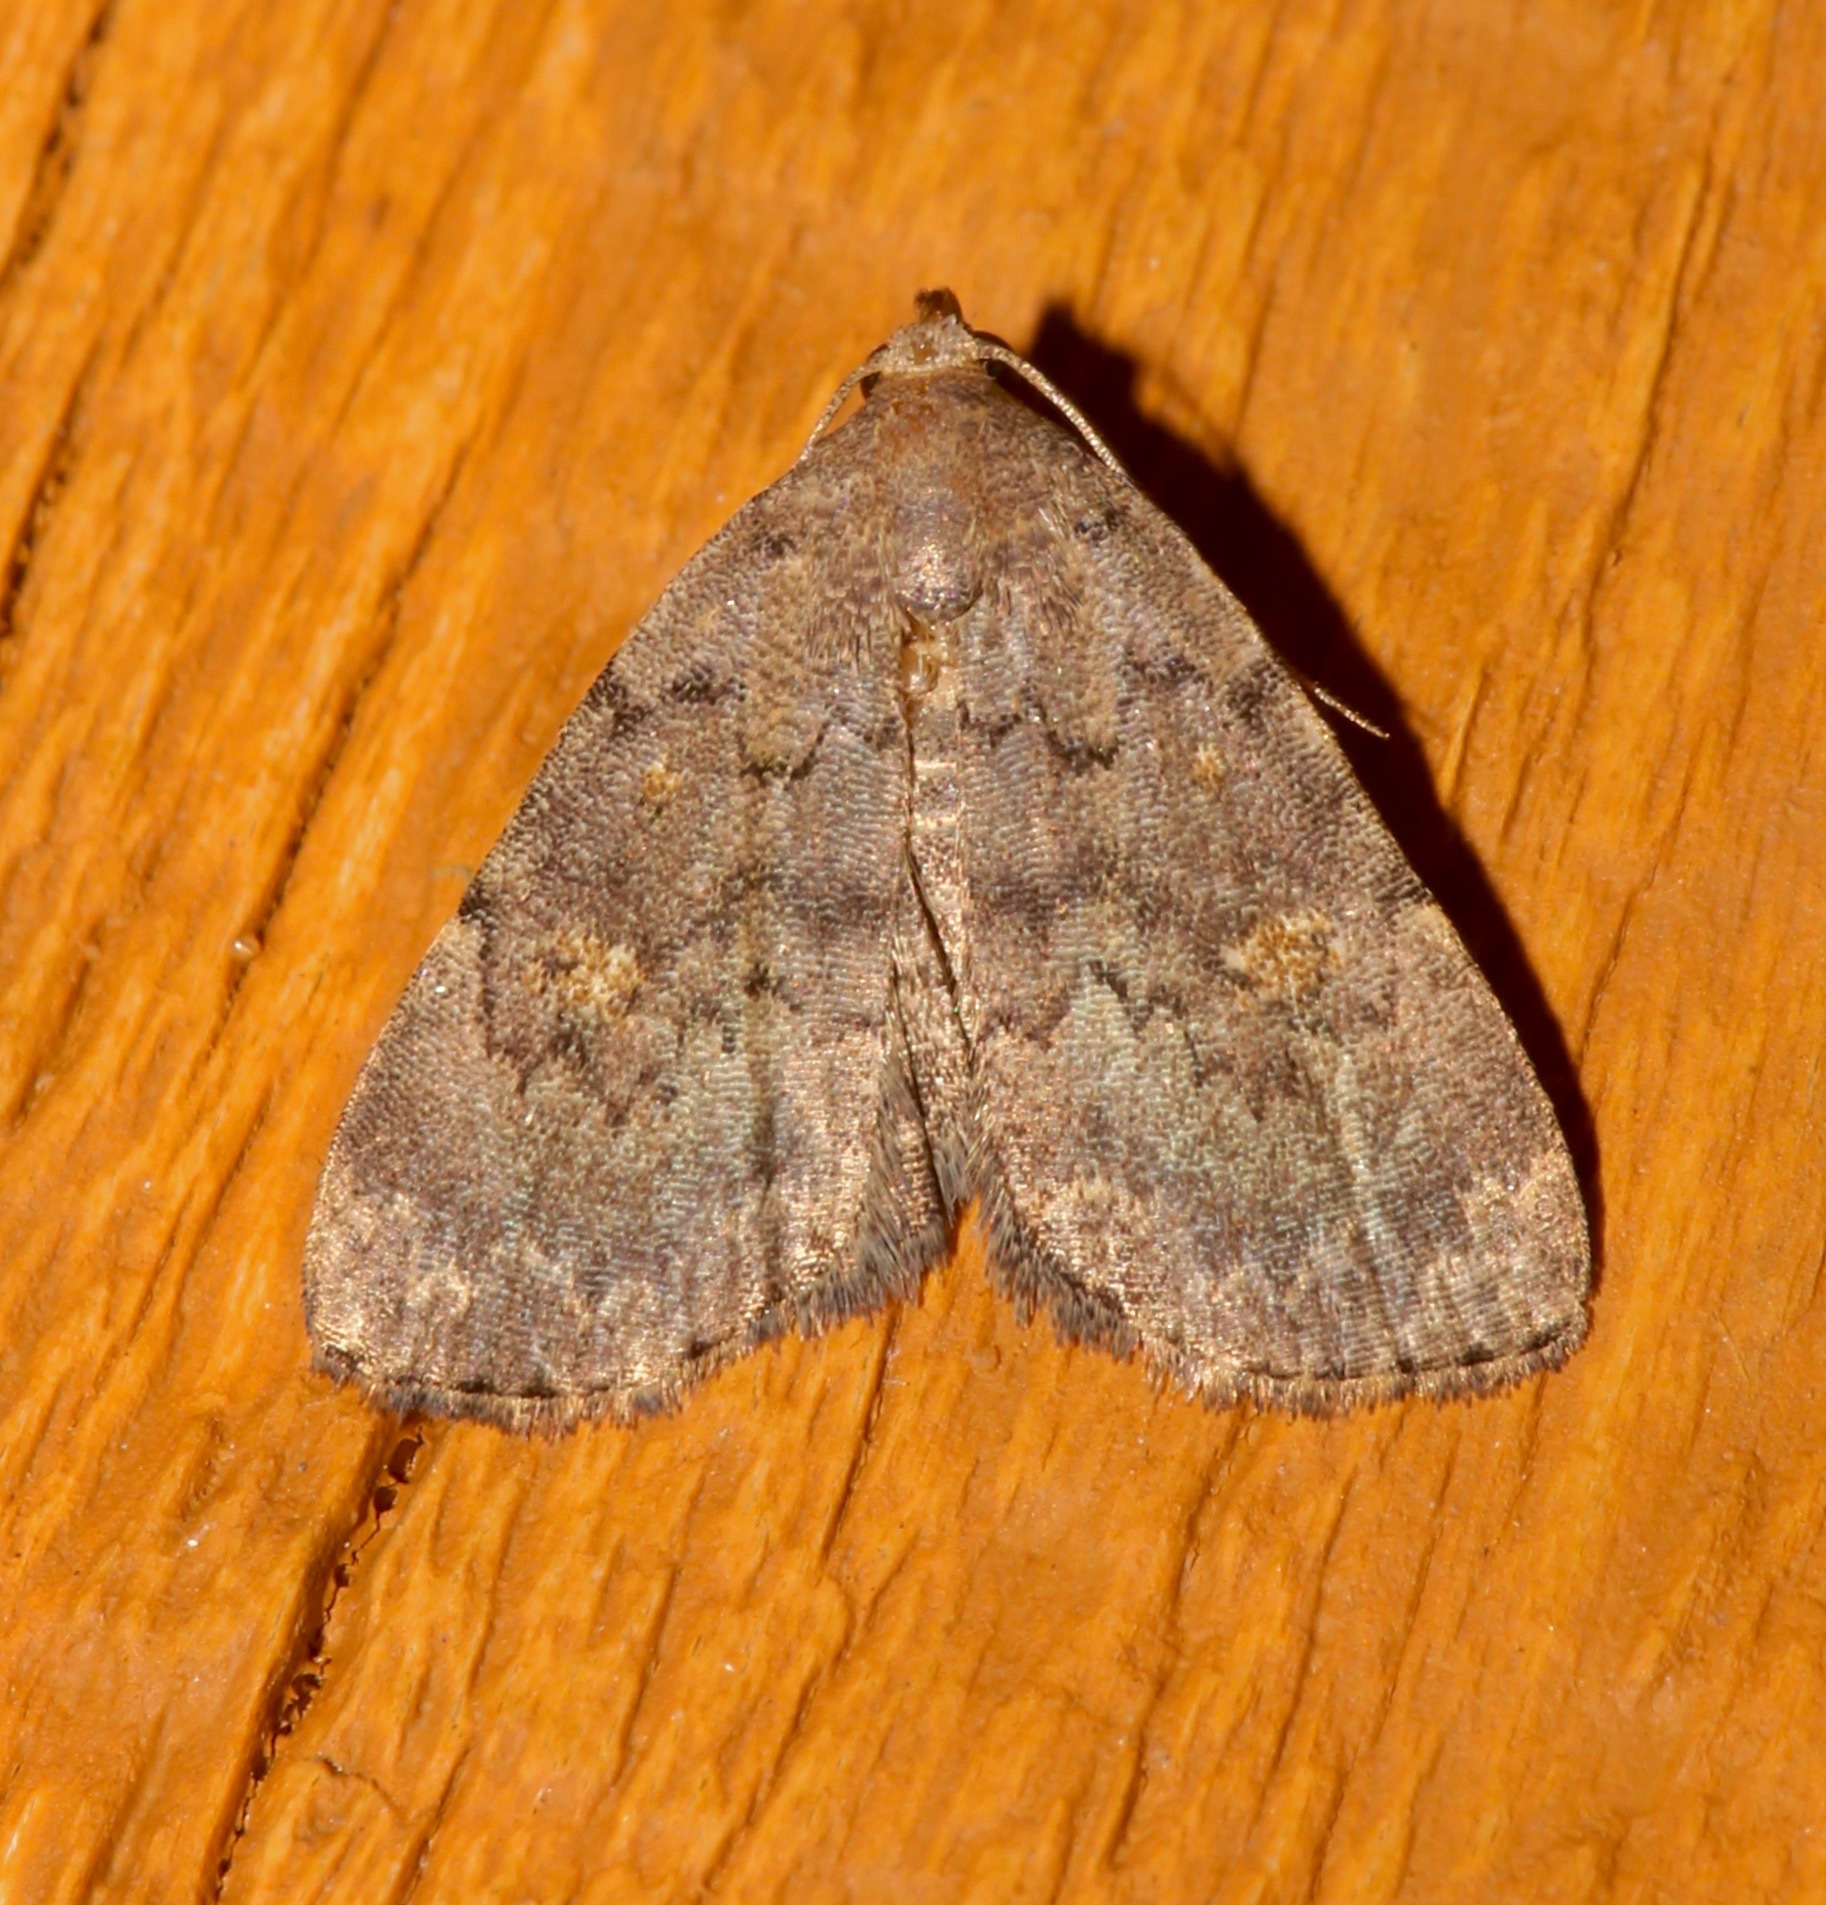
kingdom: Animalia
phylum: Arthropoda
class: Insecta
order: Lepidoptera
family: Erebidae
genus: Idia
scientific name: Idia aemula
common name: Common idia moth
